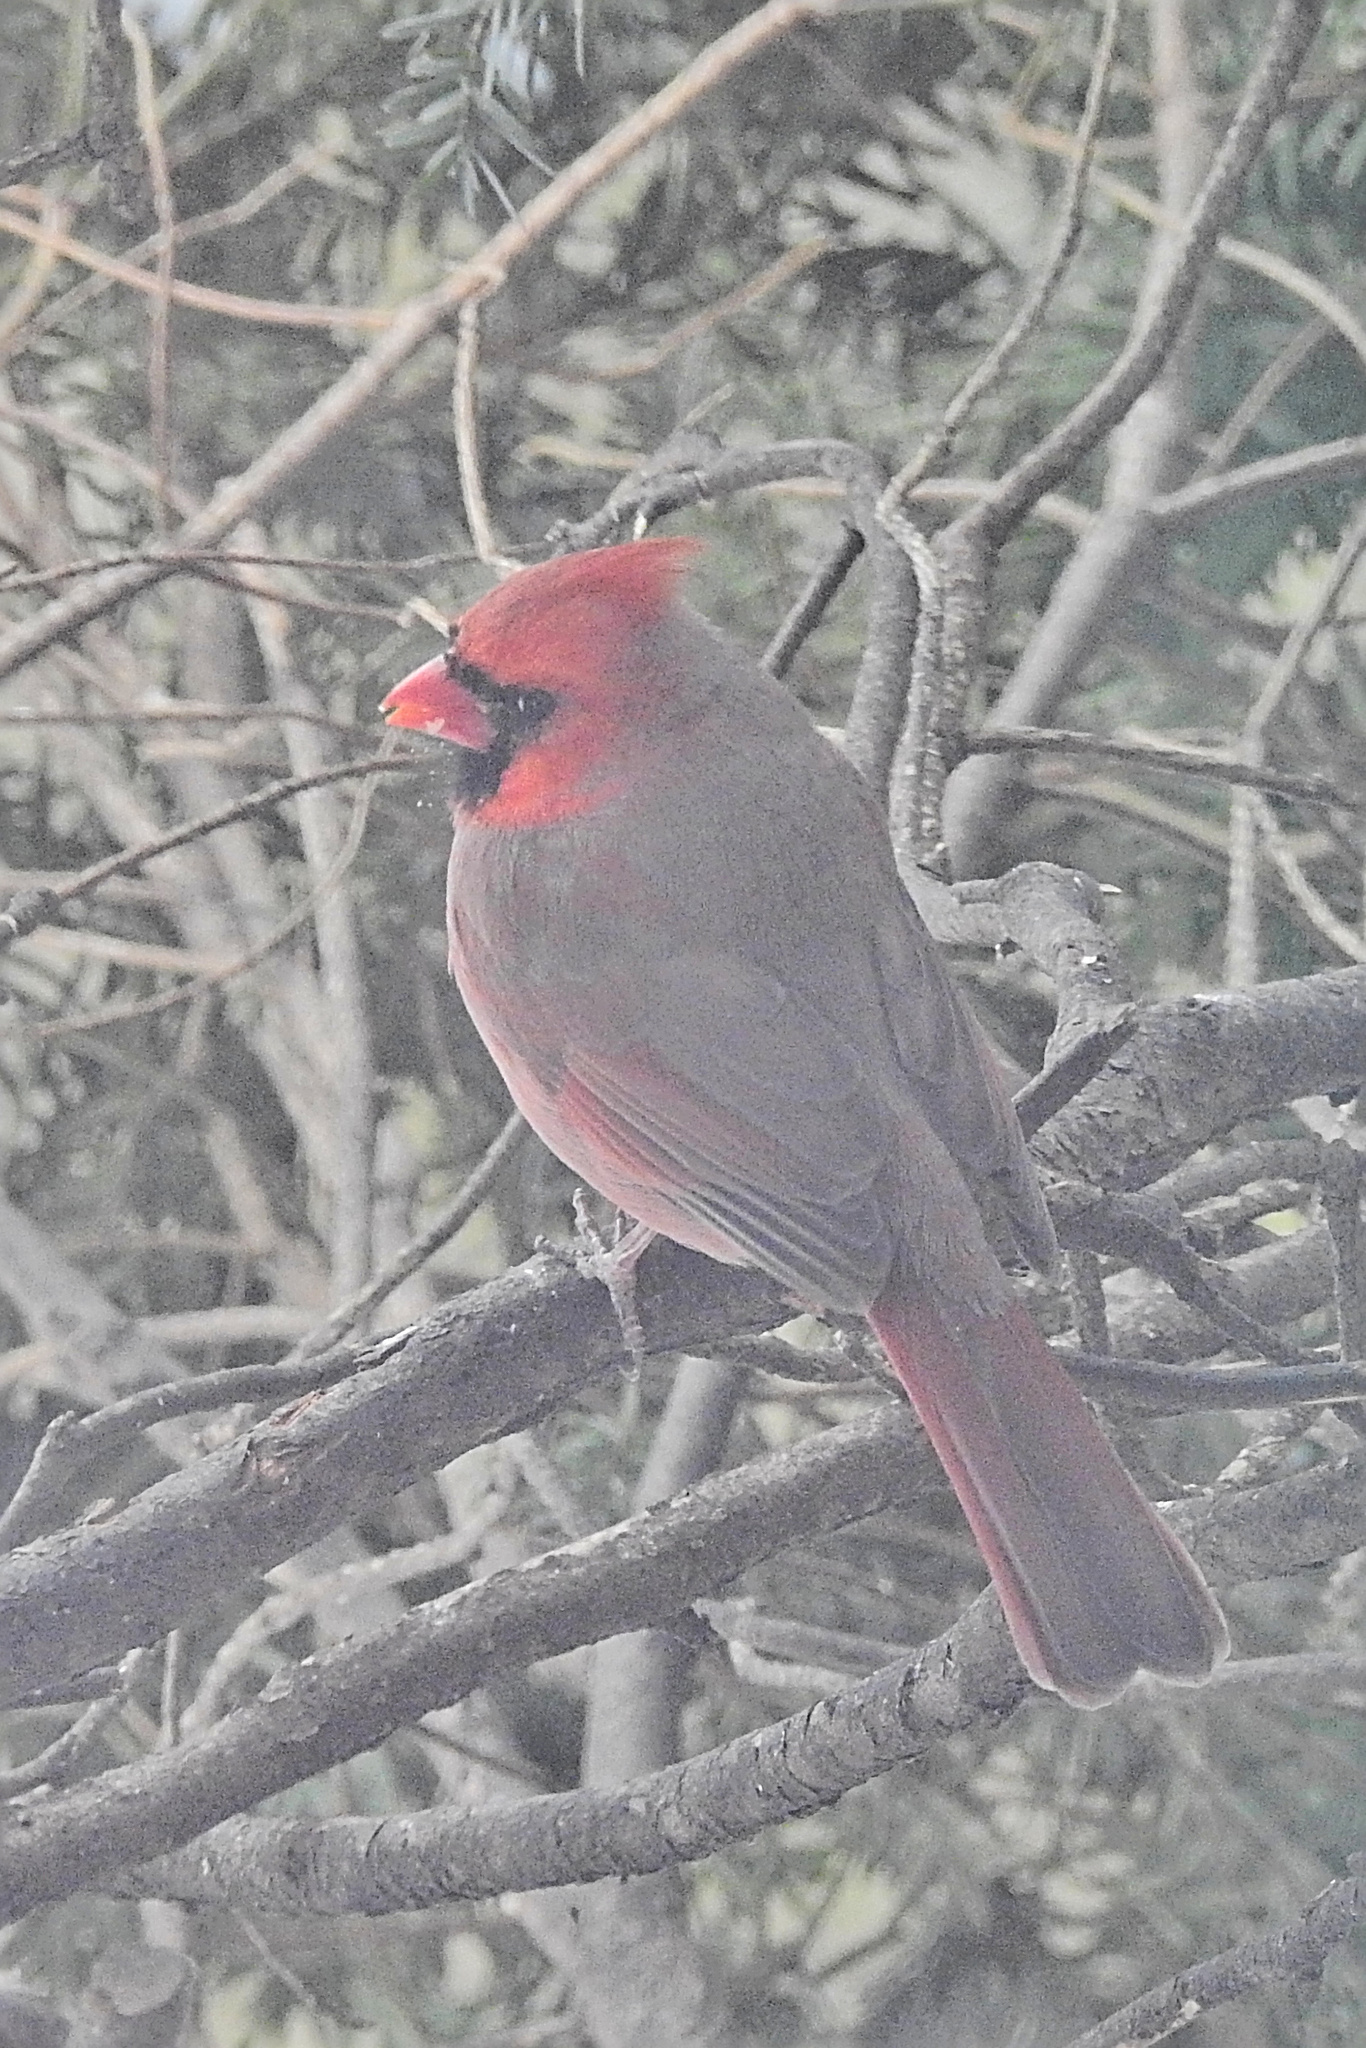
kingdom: Animalia
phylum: Chordata
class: Aves
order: Passeriformes
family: Cardinalidae
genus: Cardinalis
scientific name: Cardinalis cardinalis
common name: Northern cardinal
